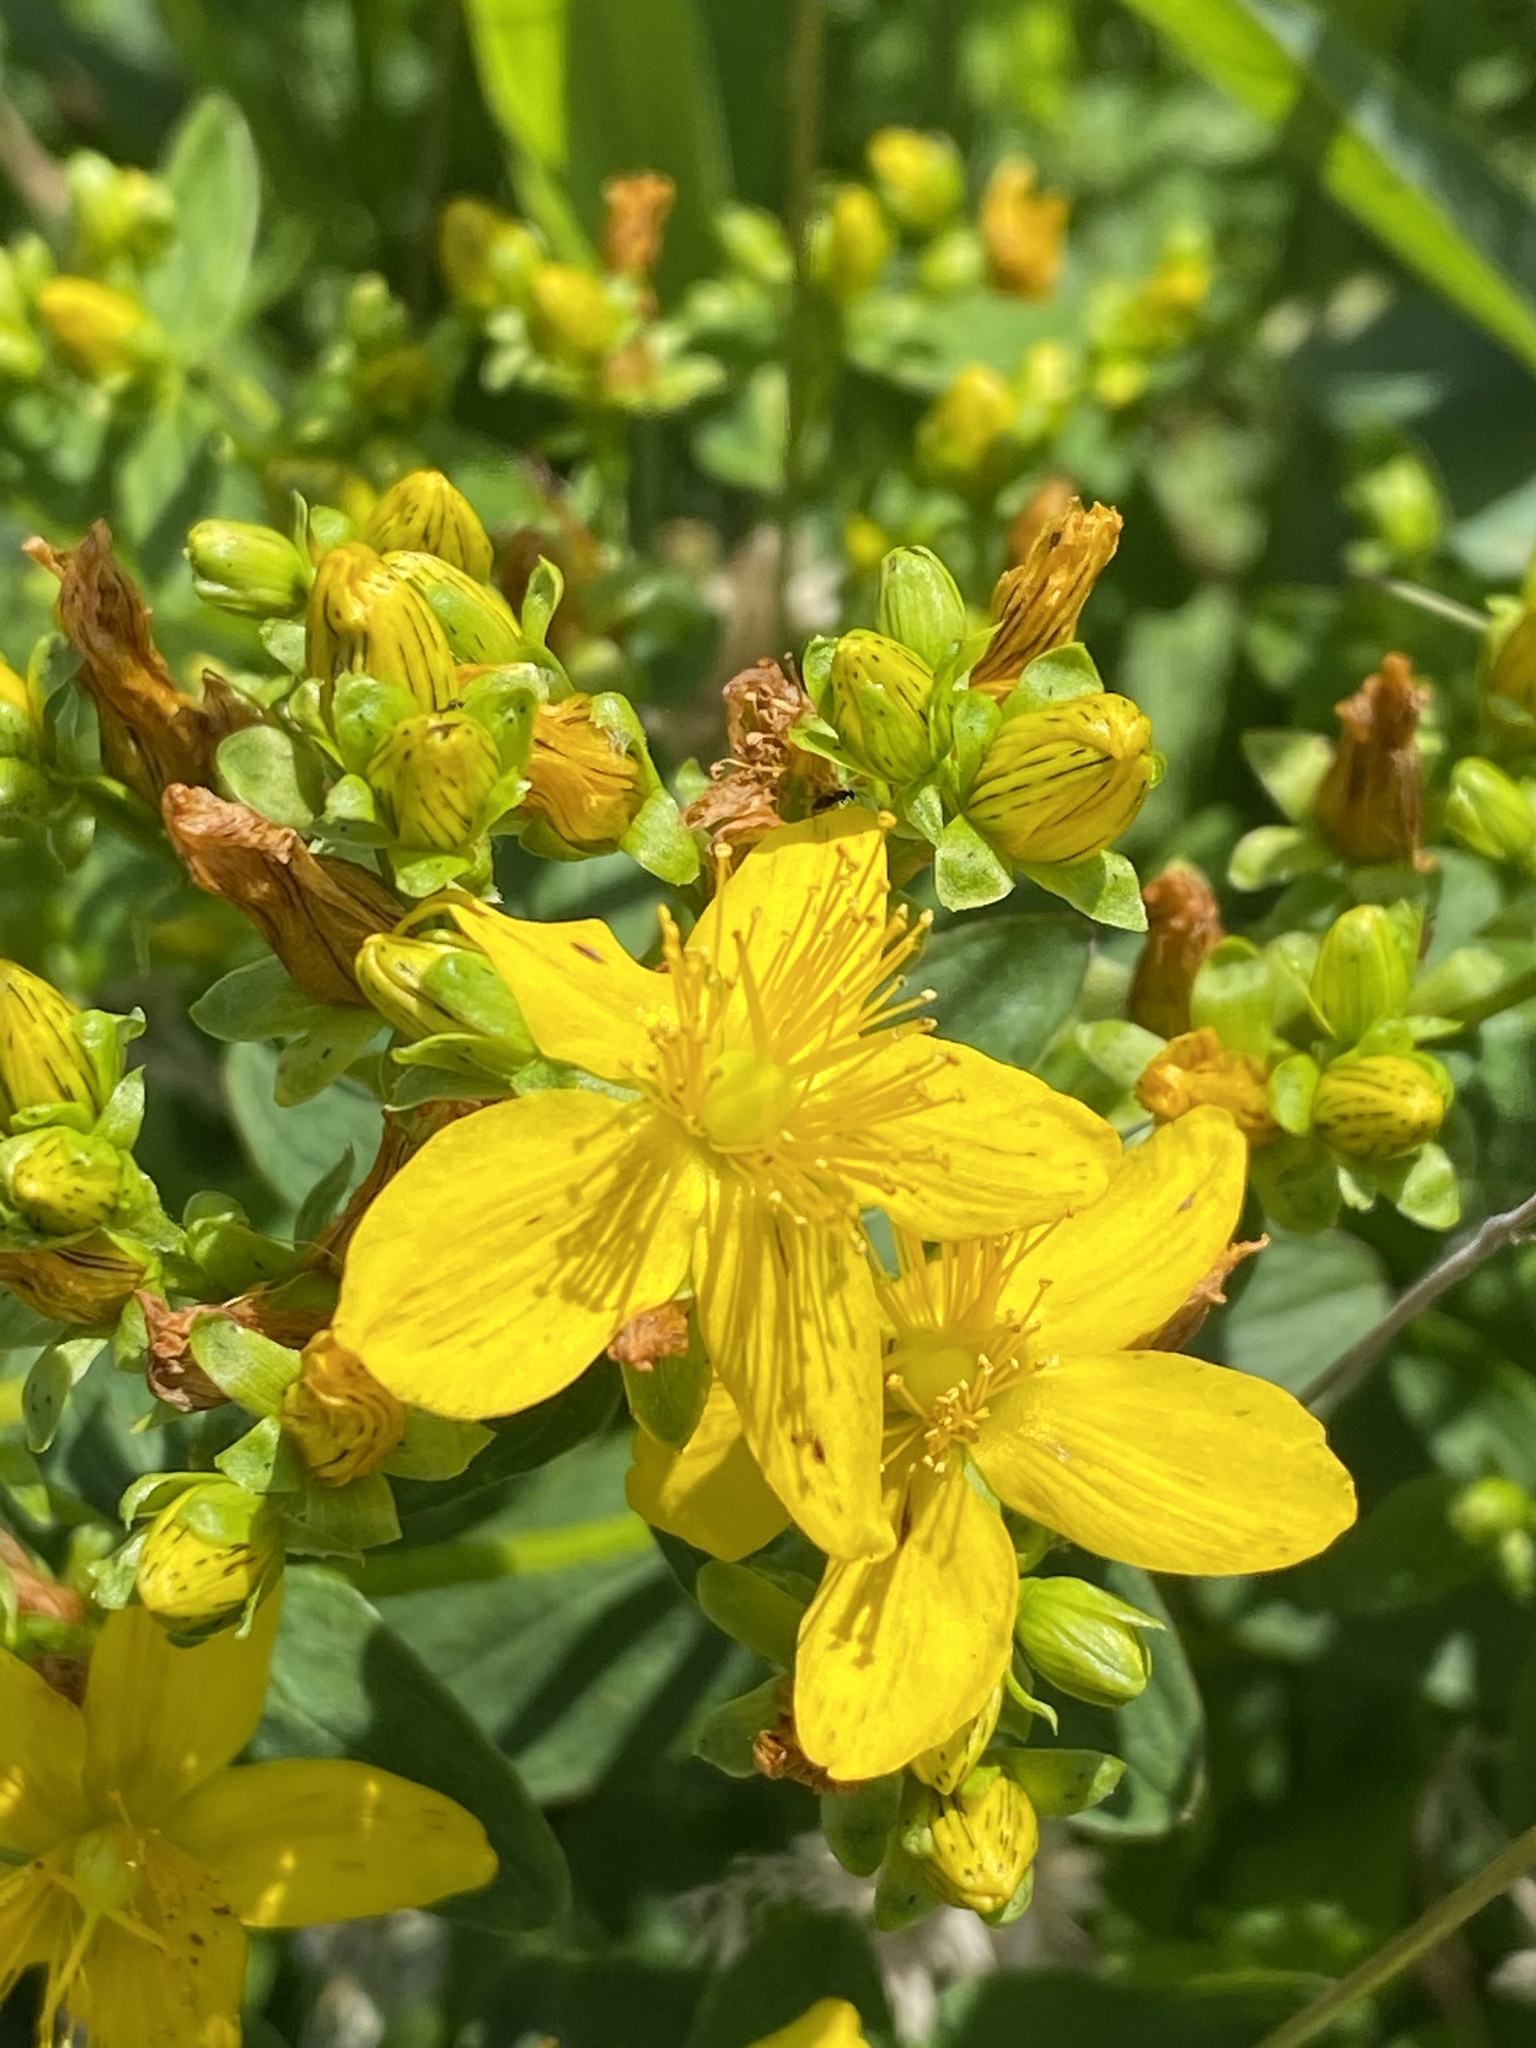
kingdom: Plantae
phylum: Tracheophyta
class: Magnoliopsida
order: Malpighiales
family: Hypericaceae
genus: Hypericum
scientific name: Hypericum maculatum
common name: Imperforate st. john's-wort
